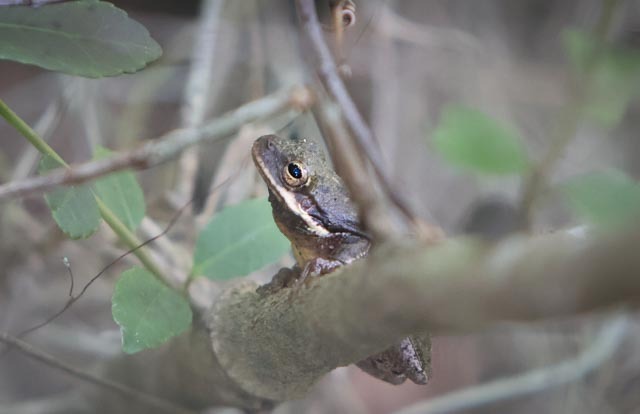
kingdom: Animalia
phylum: Chordata
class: Amphibia
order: Anura
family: Hylidae
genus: Dryophytes
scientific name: Dryophytes squirellus
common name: Squirrel treefrog
